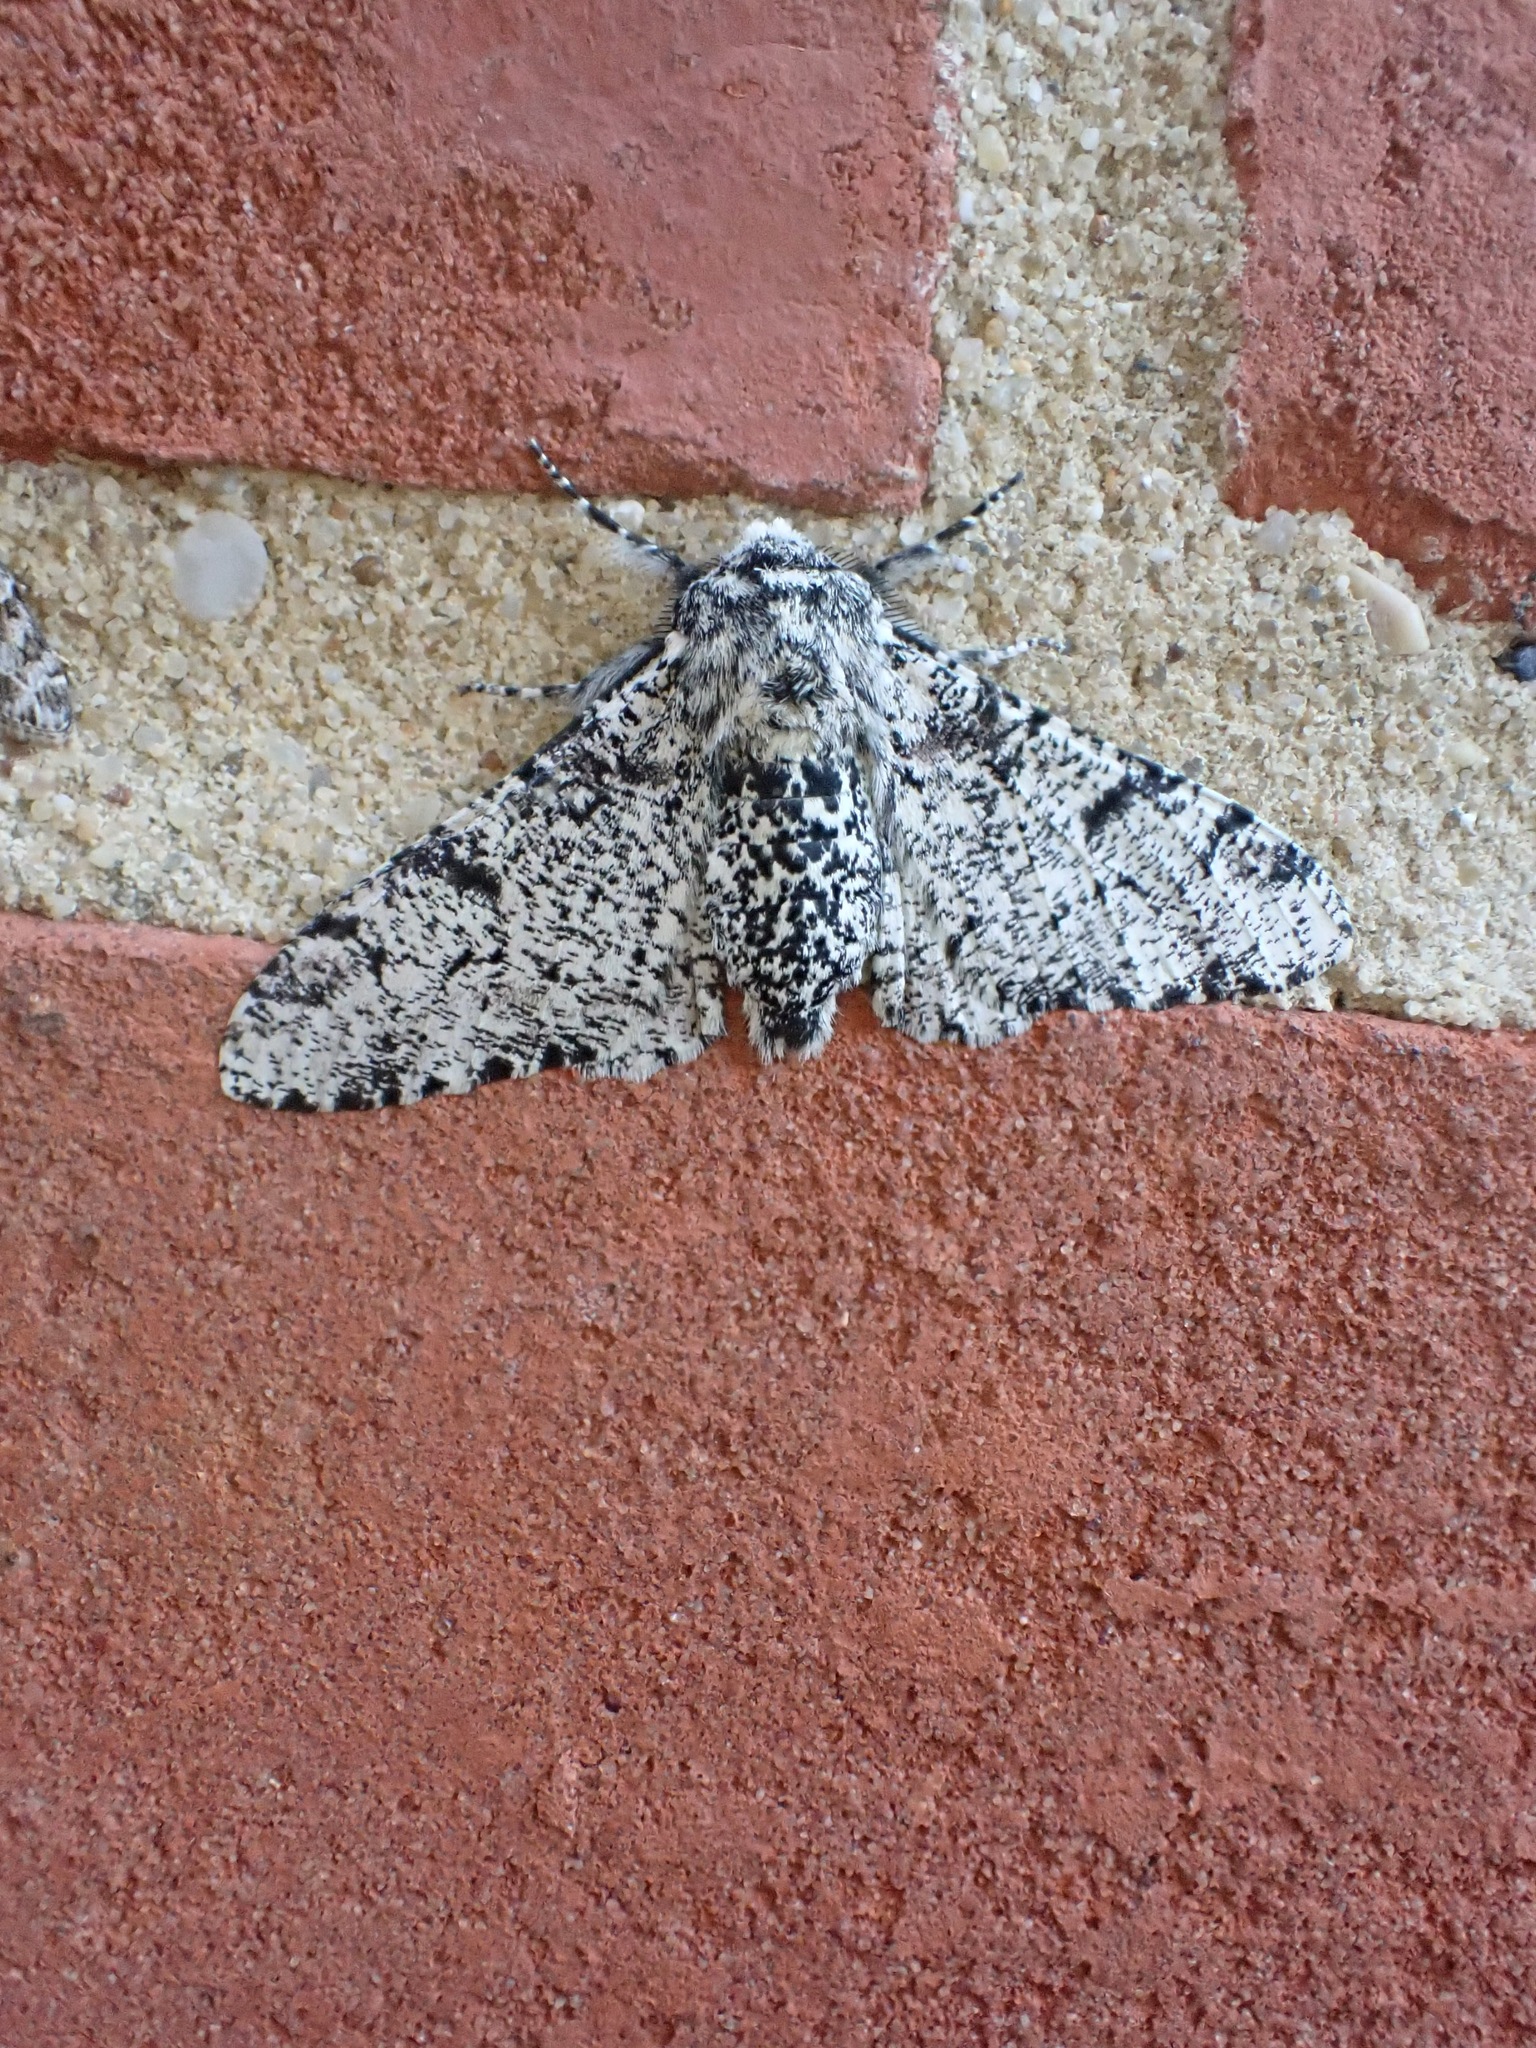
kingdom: Animalia
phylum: Arthropoda
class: Insecta
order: Lepidoptera
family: Geometridae
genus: Biston
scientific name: Biston betularia
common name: Peppered moth
